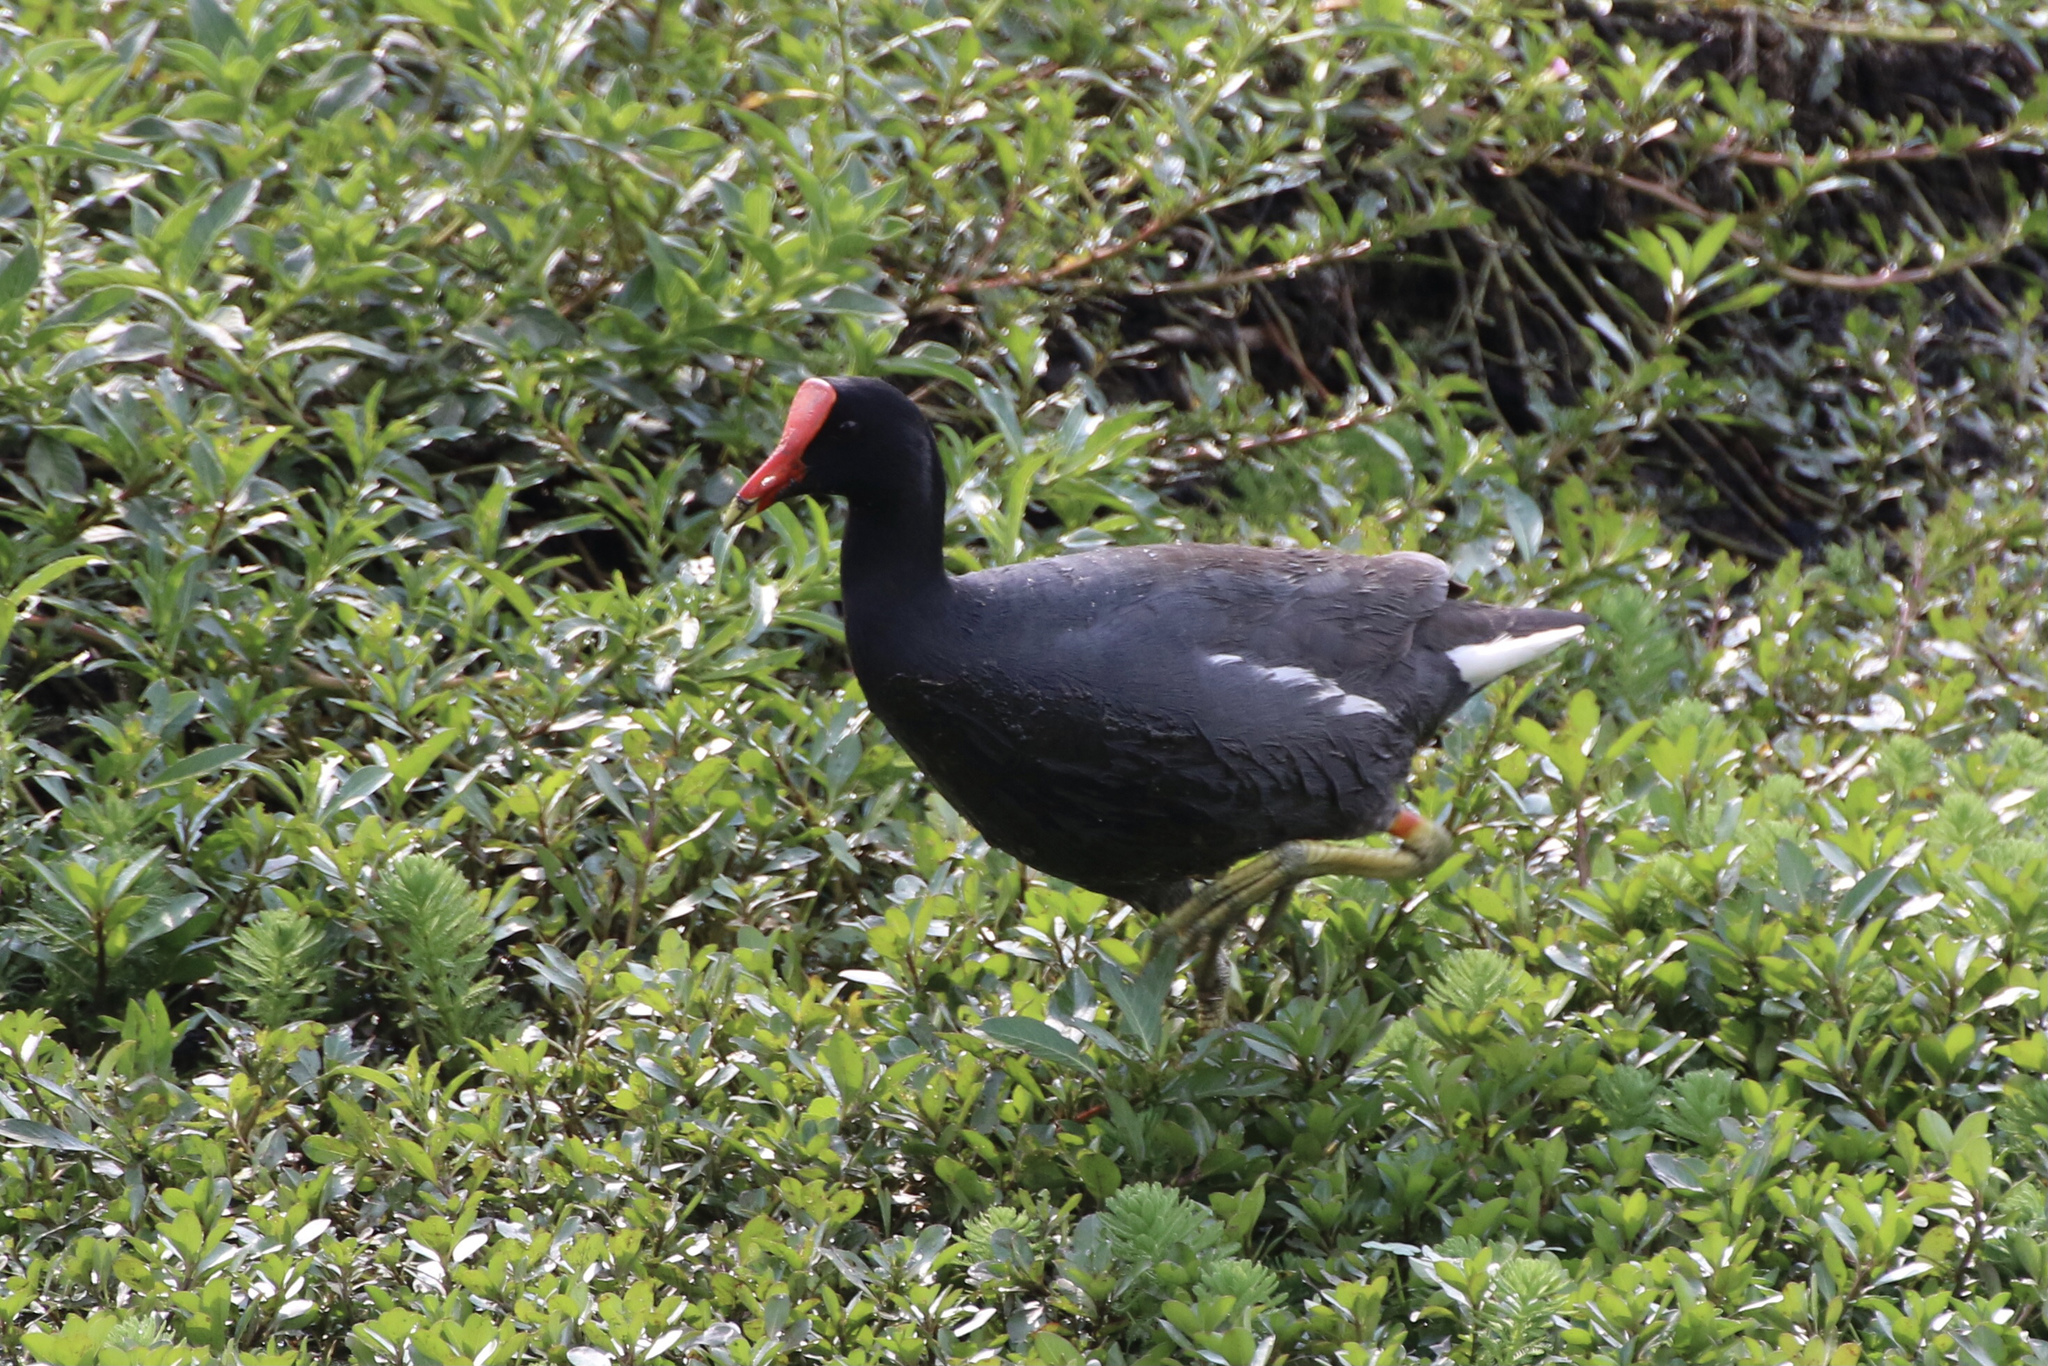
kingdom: Animalia
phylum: Chordata
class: Aves
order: Gruiformes
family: Rallidae
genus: Gallinula
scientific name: Gallinula chloropus
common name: Common moorhen
